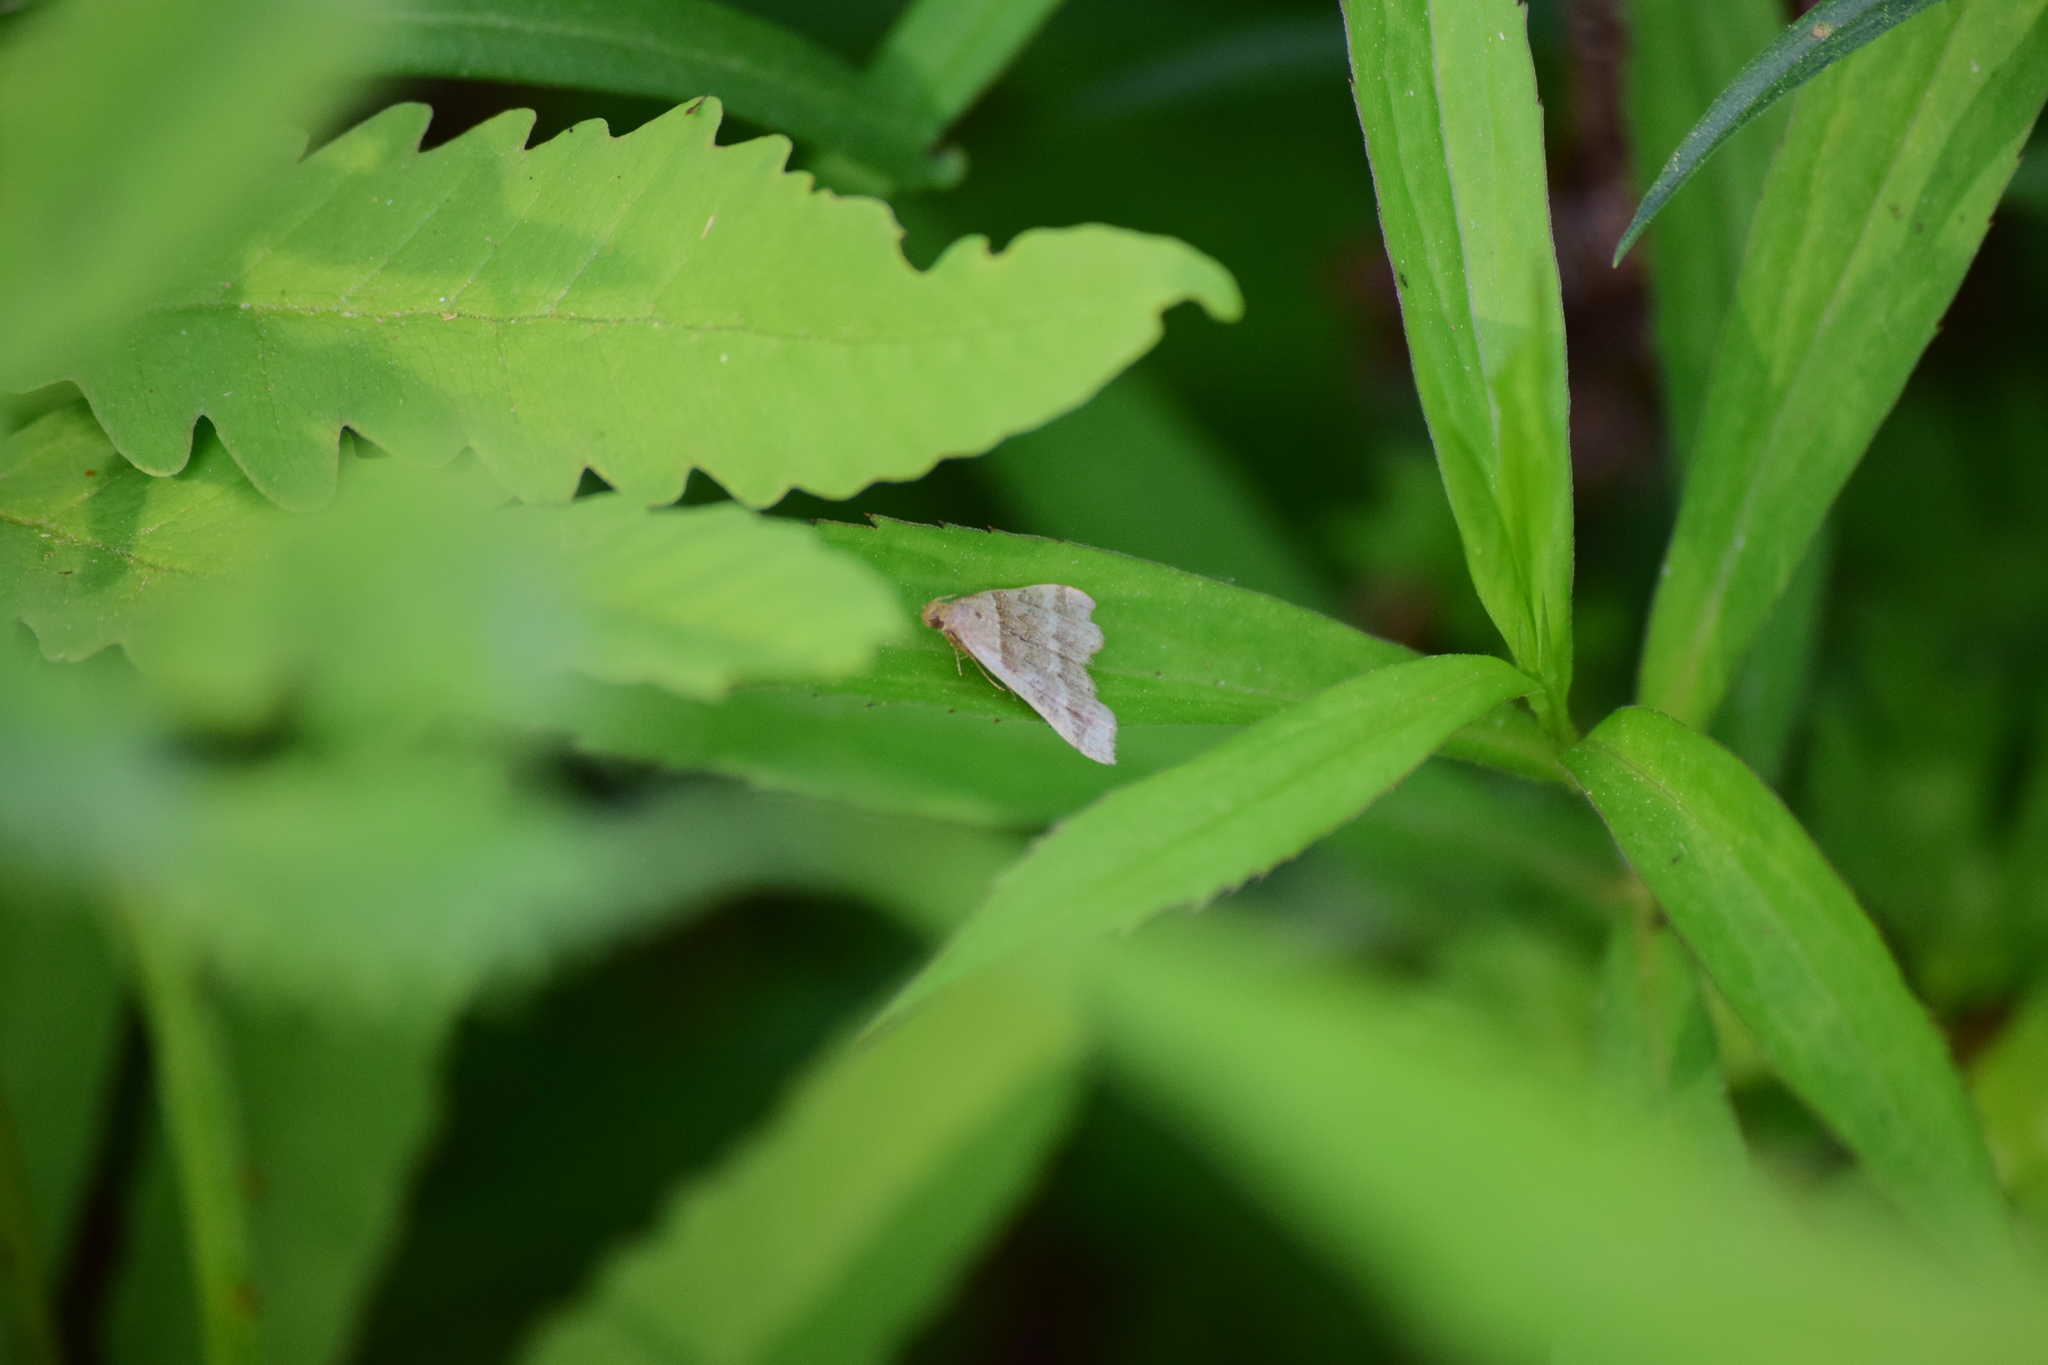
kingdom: Animalia
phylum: Arthropoda
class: Insecta
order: Lepidoptera
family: Erebidae
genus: Phaeolita
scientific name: Phaeolita pyramusalis
